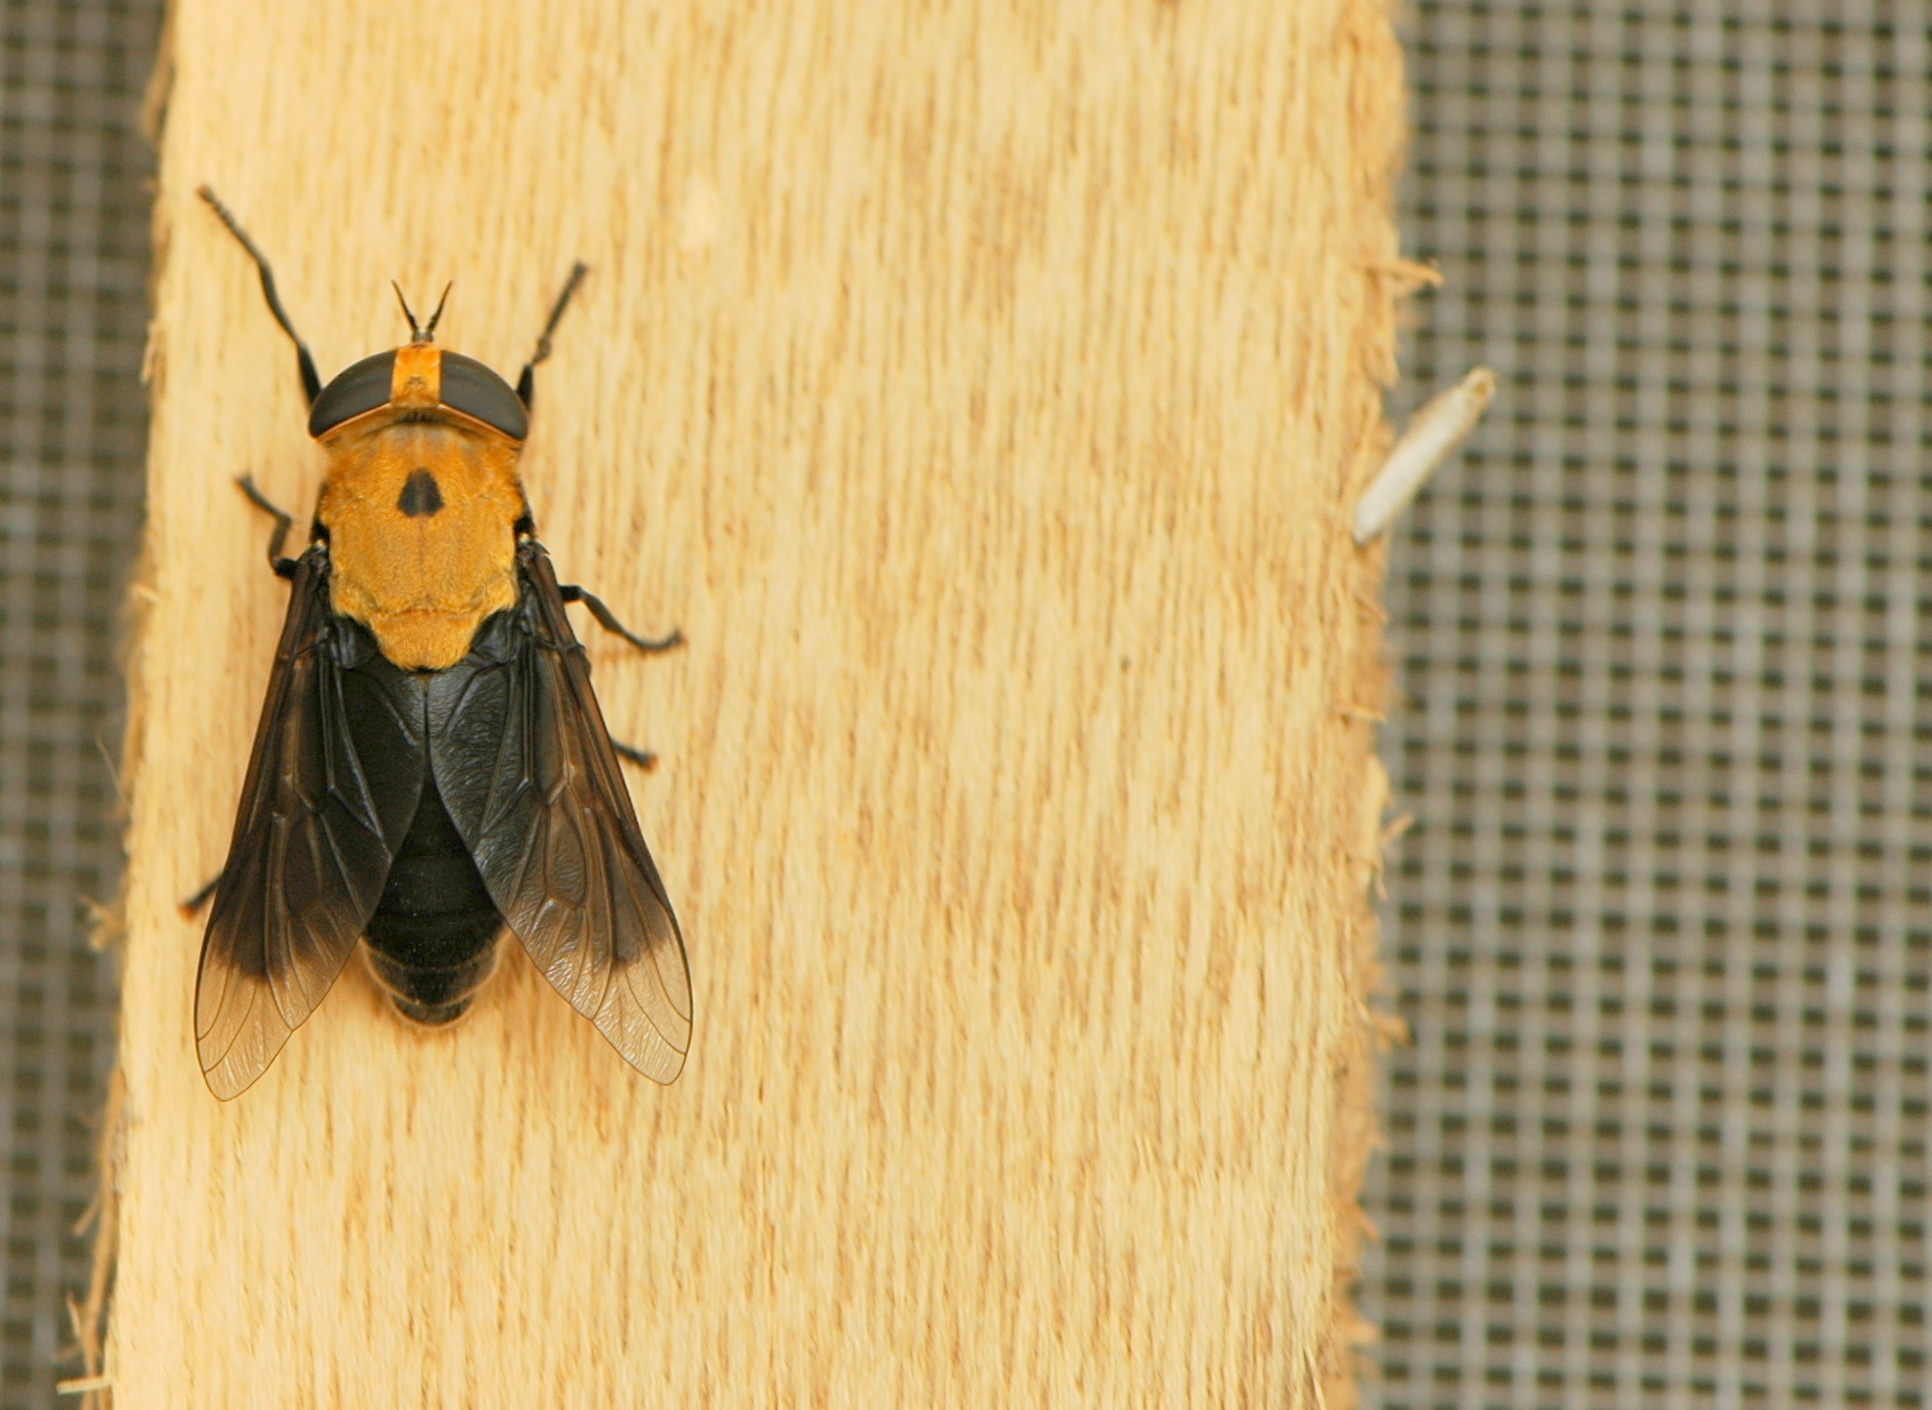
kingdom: Animalia
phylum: Arthropoda
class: Insecta
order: Diptera
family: Tabanidae
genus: Tabanus
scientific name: Tabanus biguttatus
